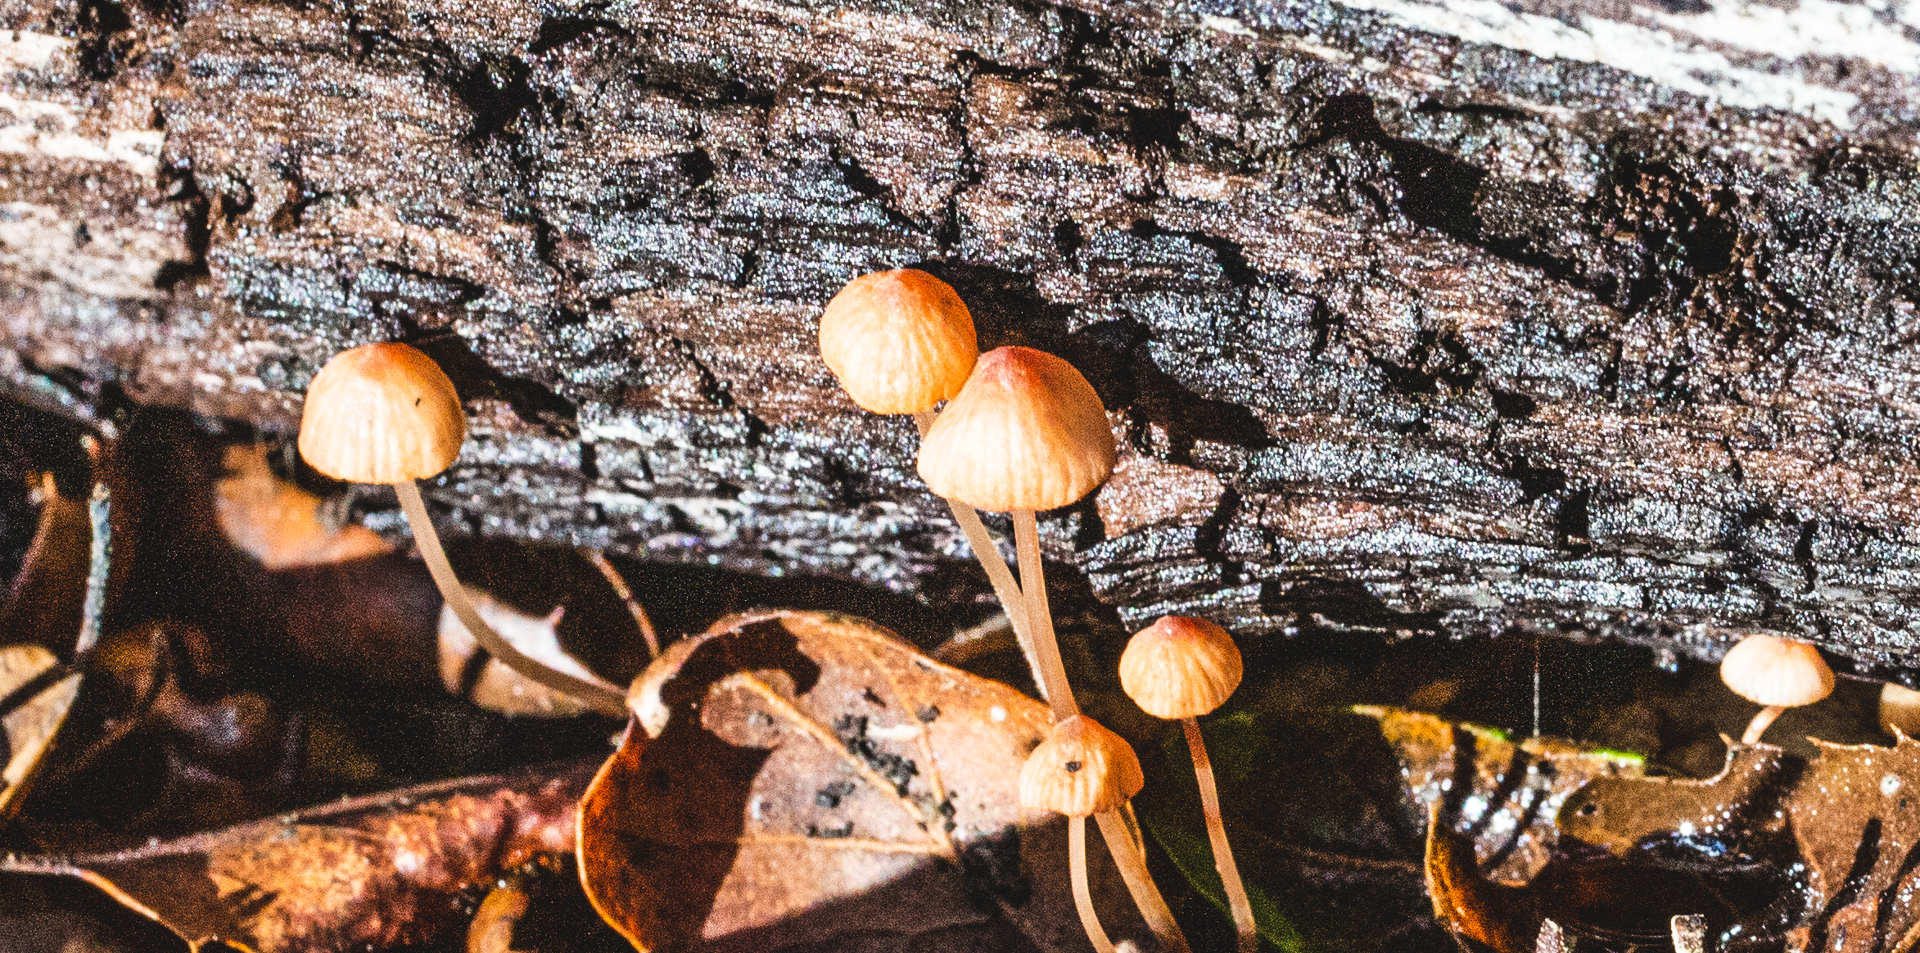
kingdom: Fungi
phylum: Basidiomycota
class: Agaricomycetes
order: Agaricales
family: Mycenaceae
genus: Mycena
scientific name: Mycena
